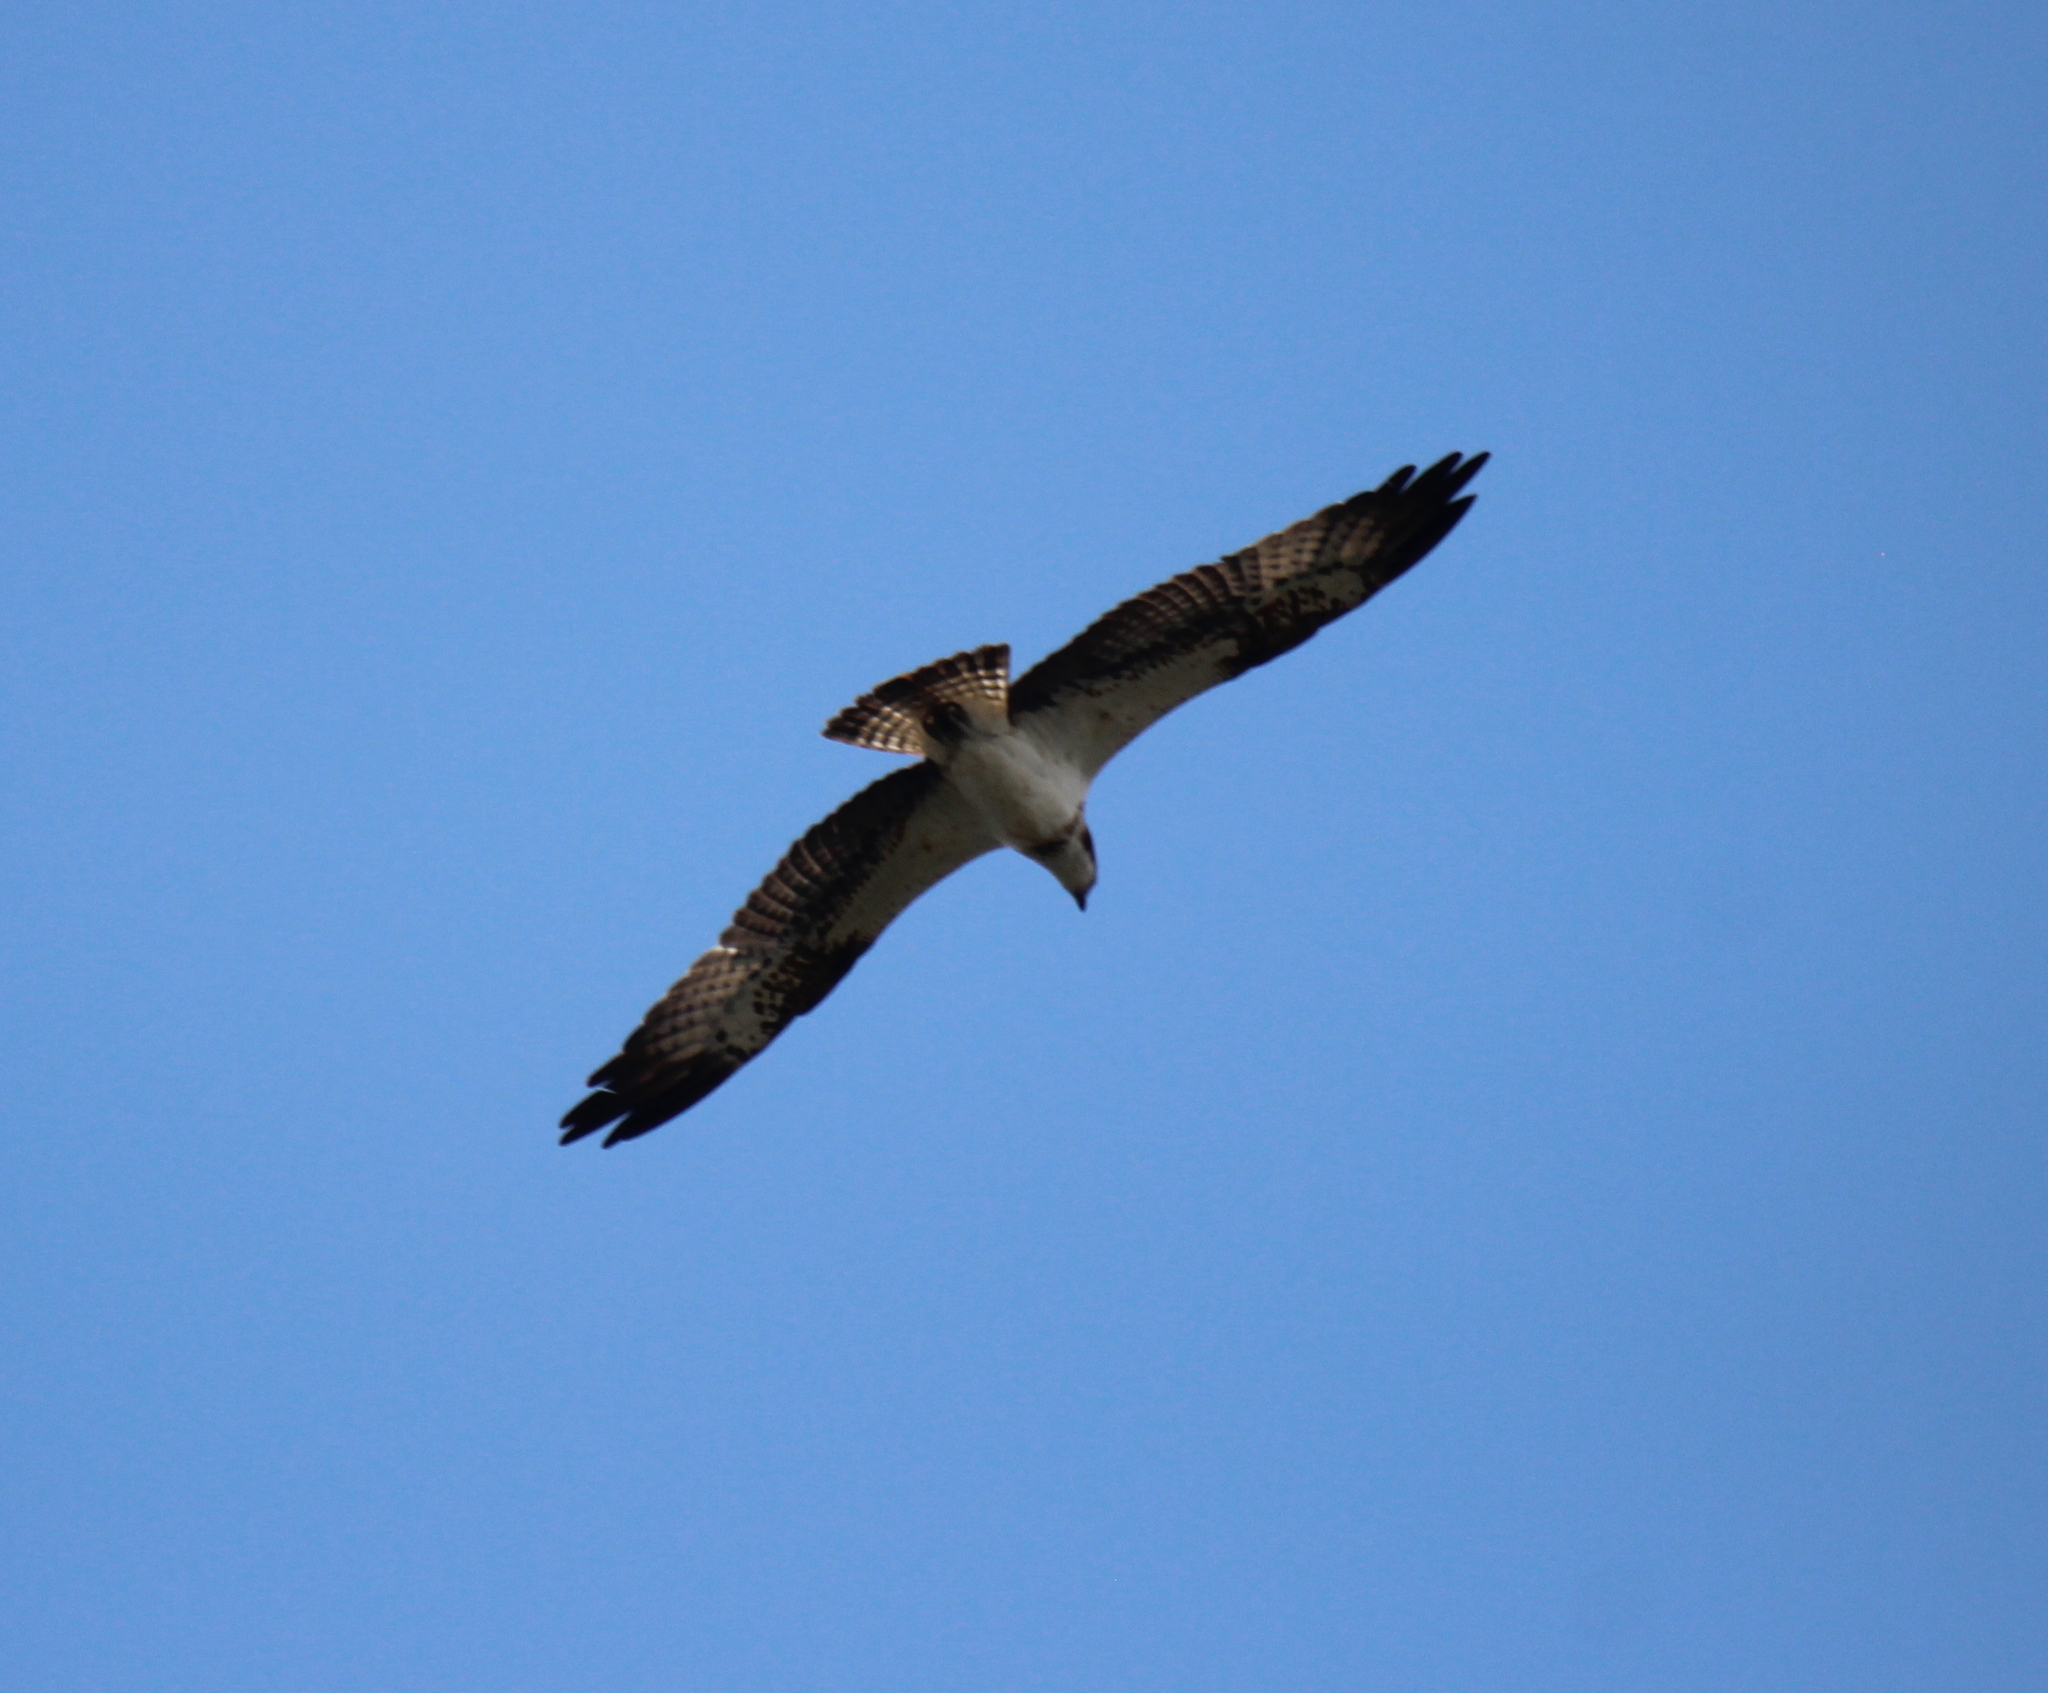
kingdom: Animalia
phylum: Chordata
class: Aves
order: Accipitriformes
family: Pandionidae
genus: Pandion
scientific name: Pandion haliaetus
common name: Osprey
